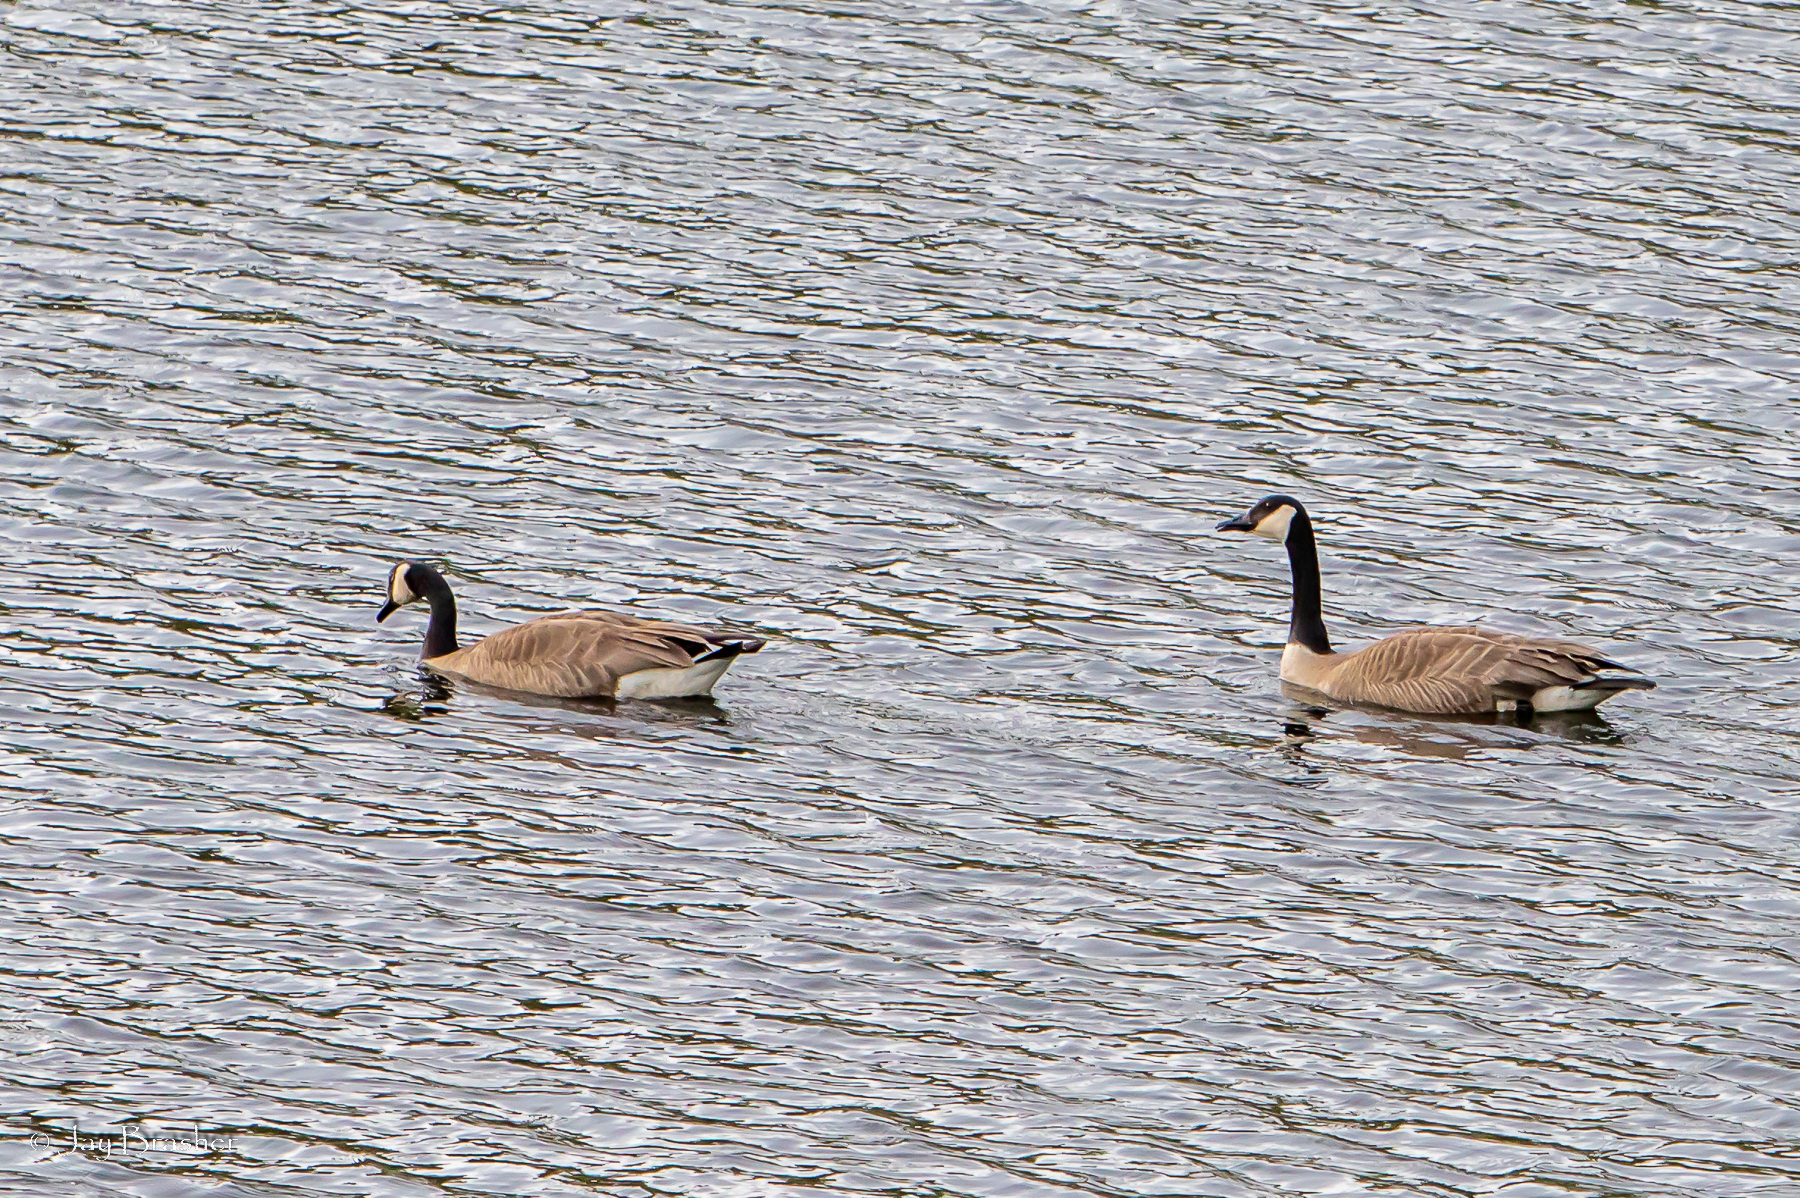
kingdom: Animalia
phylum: Chordata
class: Aves
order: Anseriformes
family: Anatidae
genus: Branta
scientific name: Branta canadensis
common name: Canada goose
